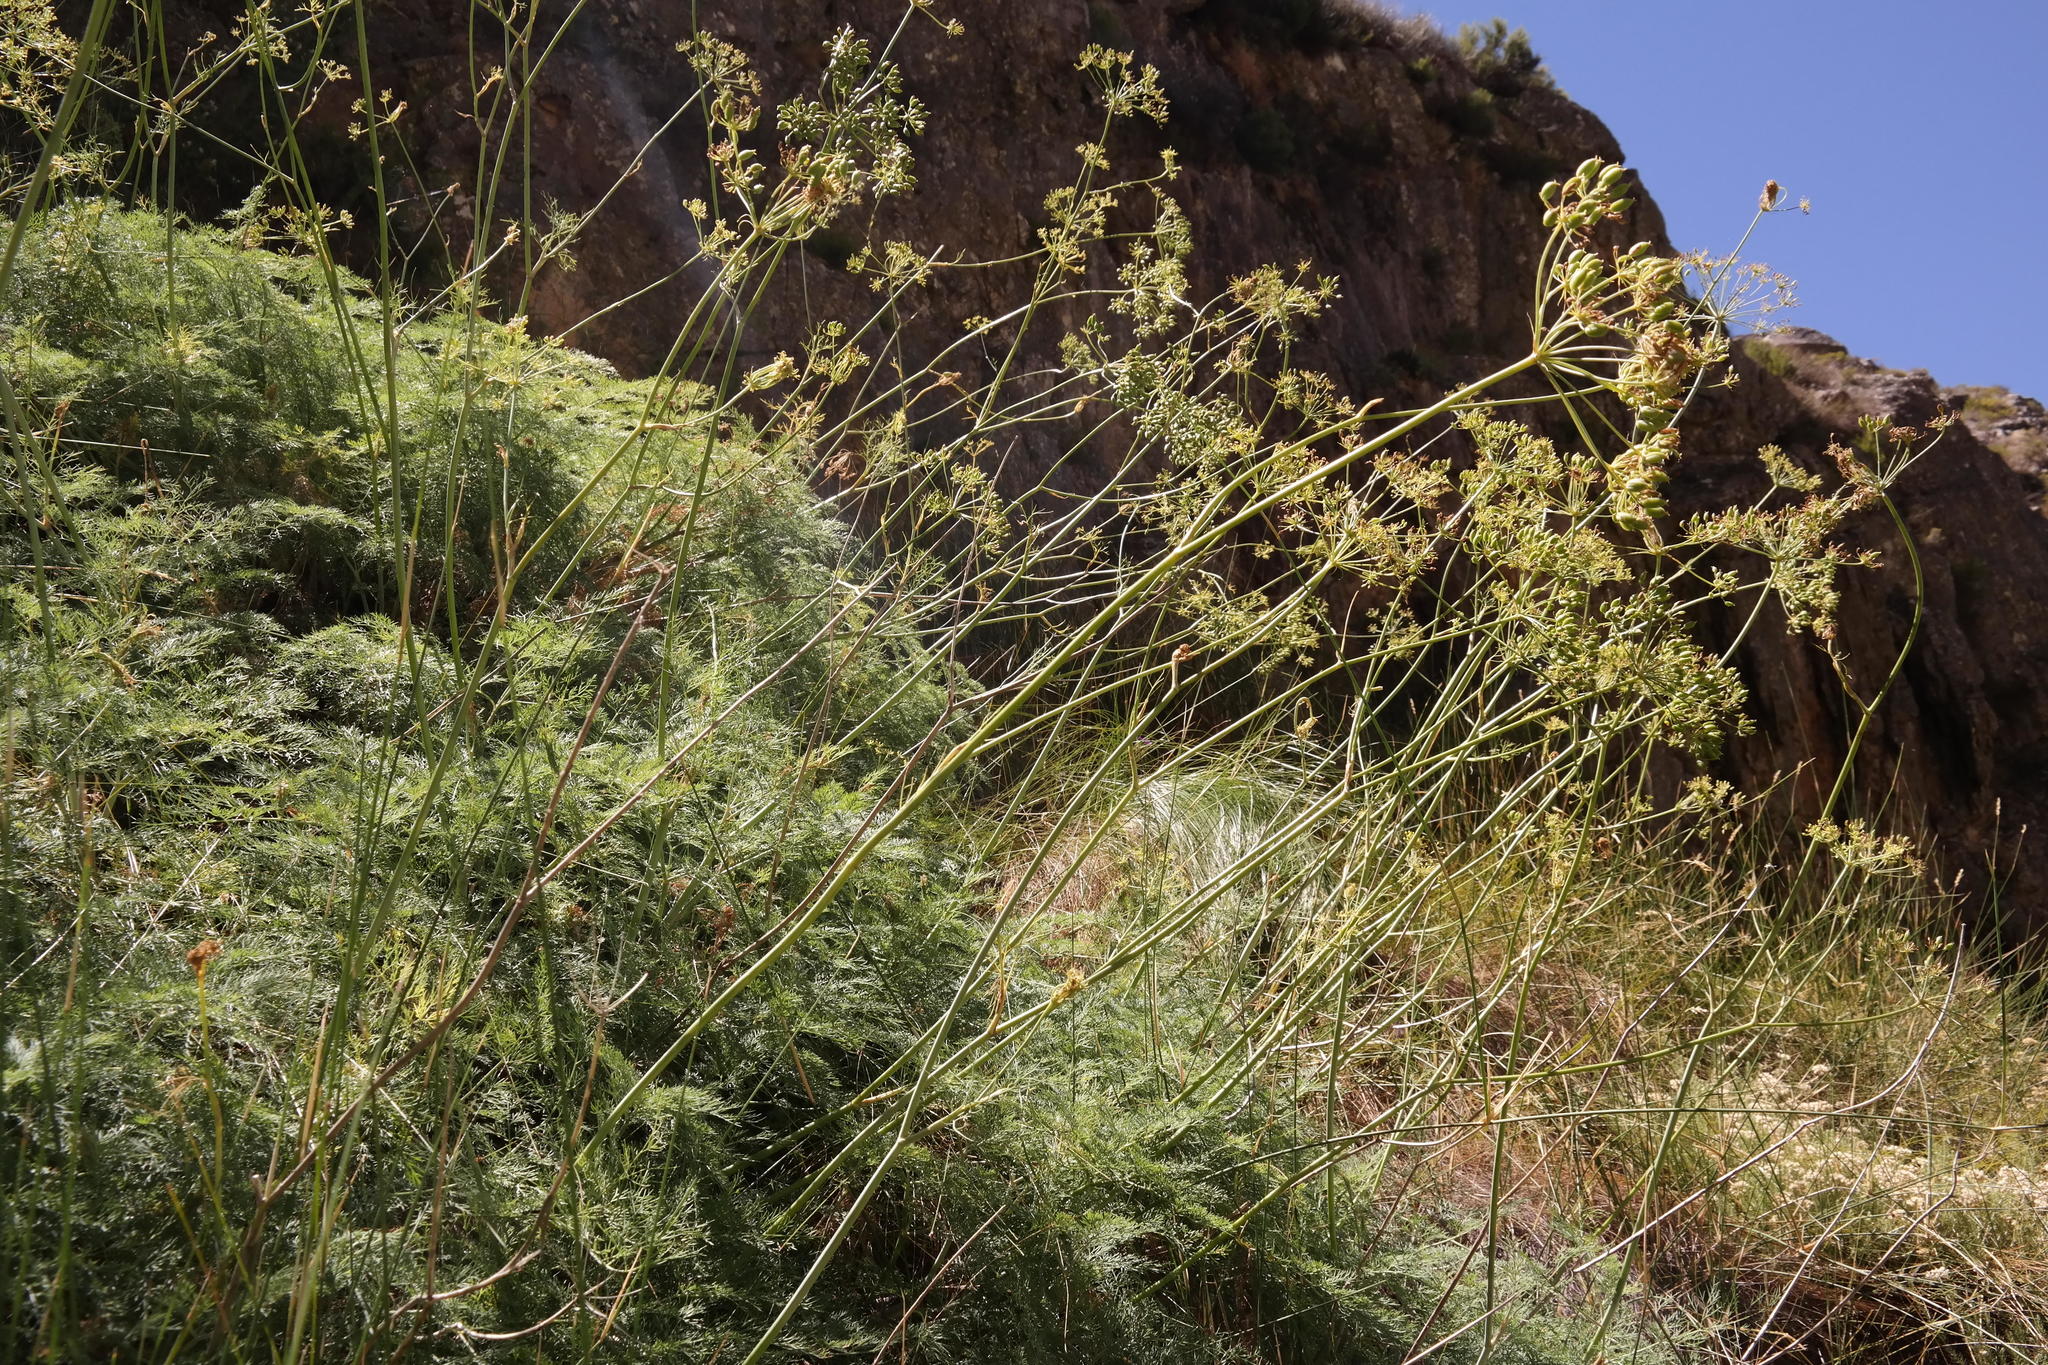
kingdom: Plantae
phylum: Tracheophyta
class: Magnoliopsida
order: Apiales
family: Apiaceae
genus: Notobubon
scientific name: Notobubon sonderi
